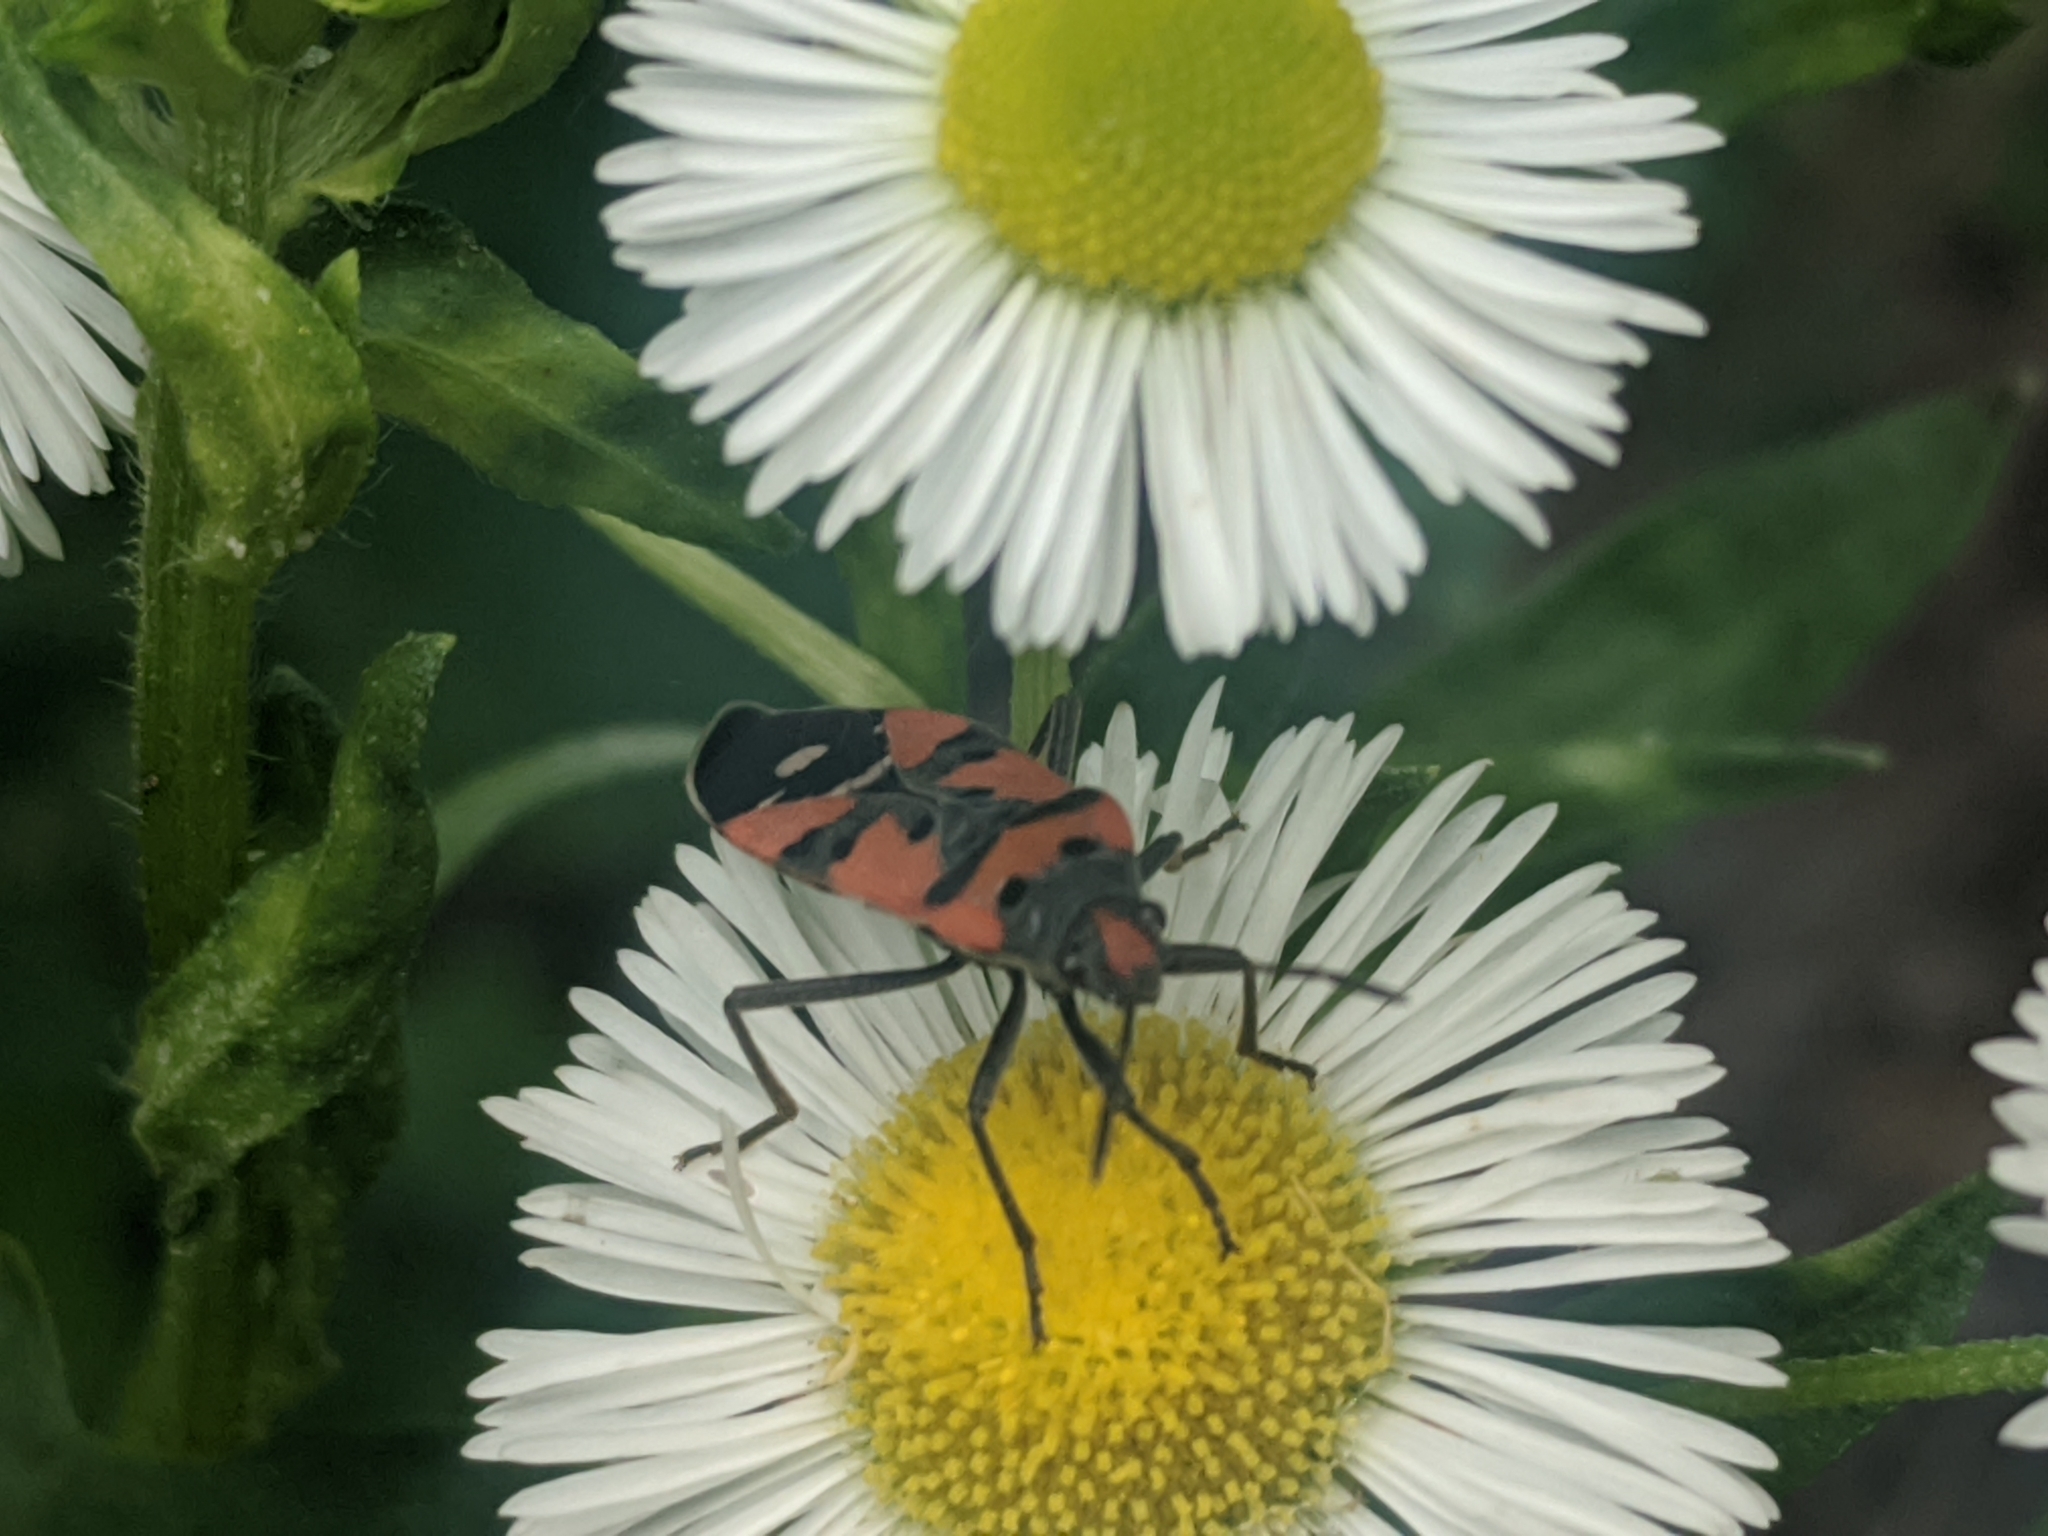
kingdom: Animalia
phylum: Arthropoda
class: Insecta
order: Hemiptera
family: Lygaeidae
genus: Lygaeus
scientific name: Lygaeus equestris
